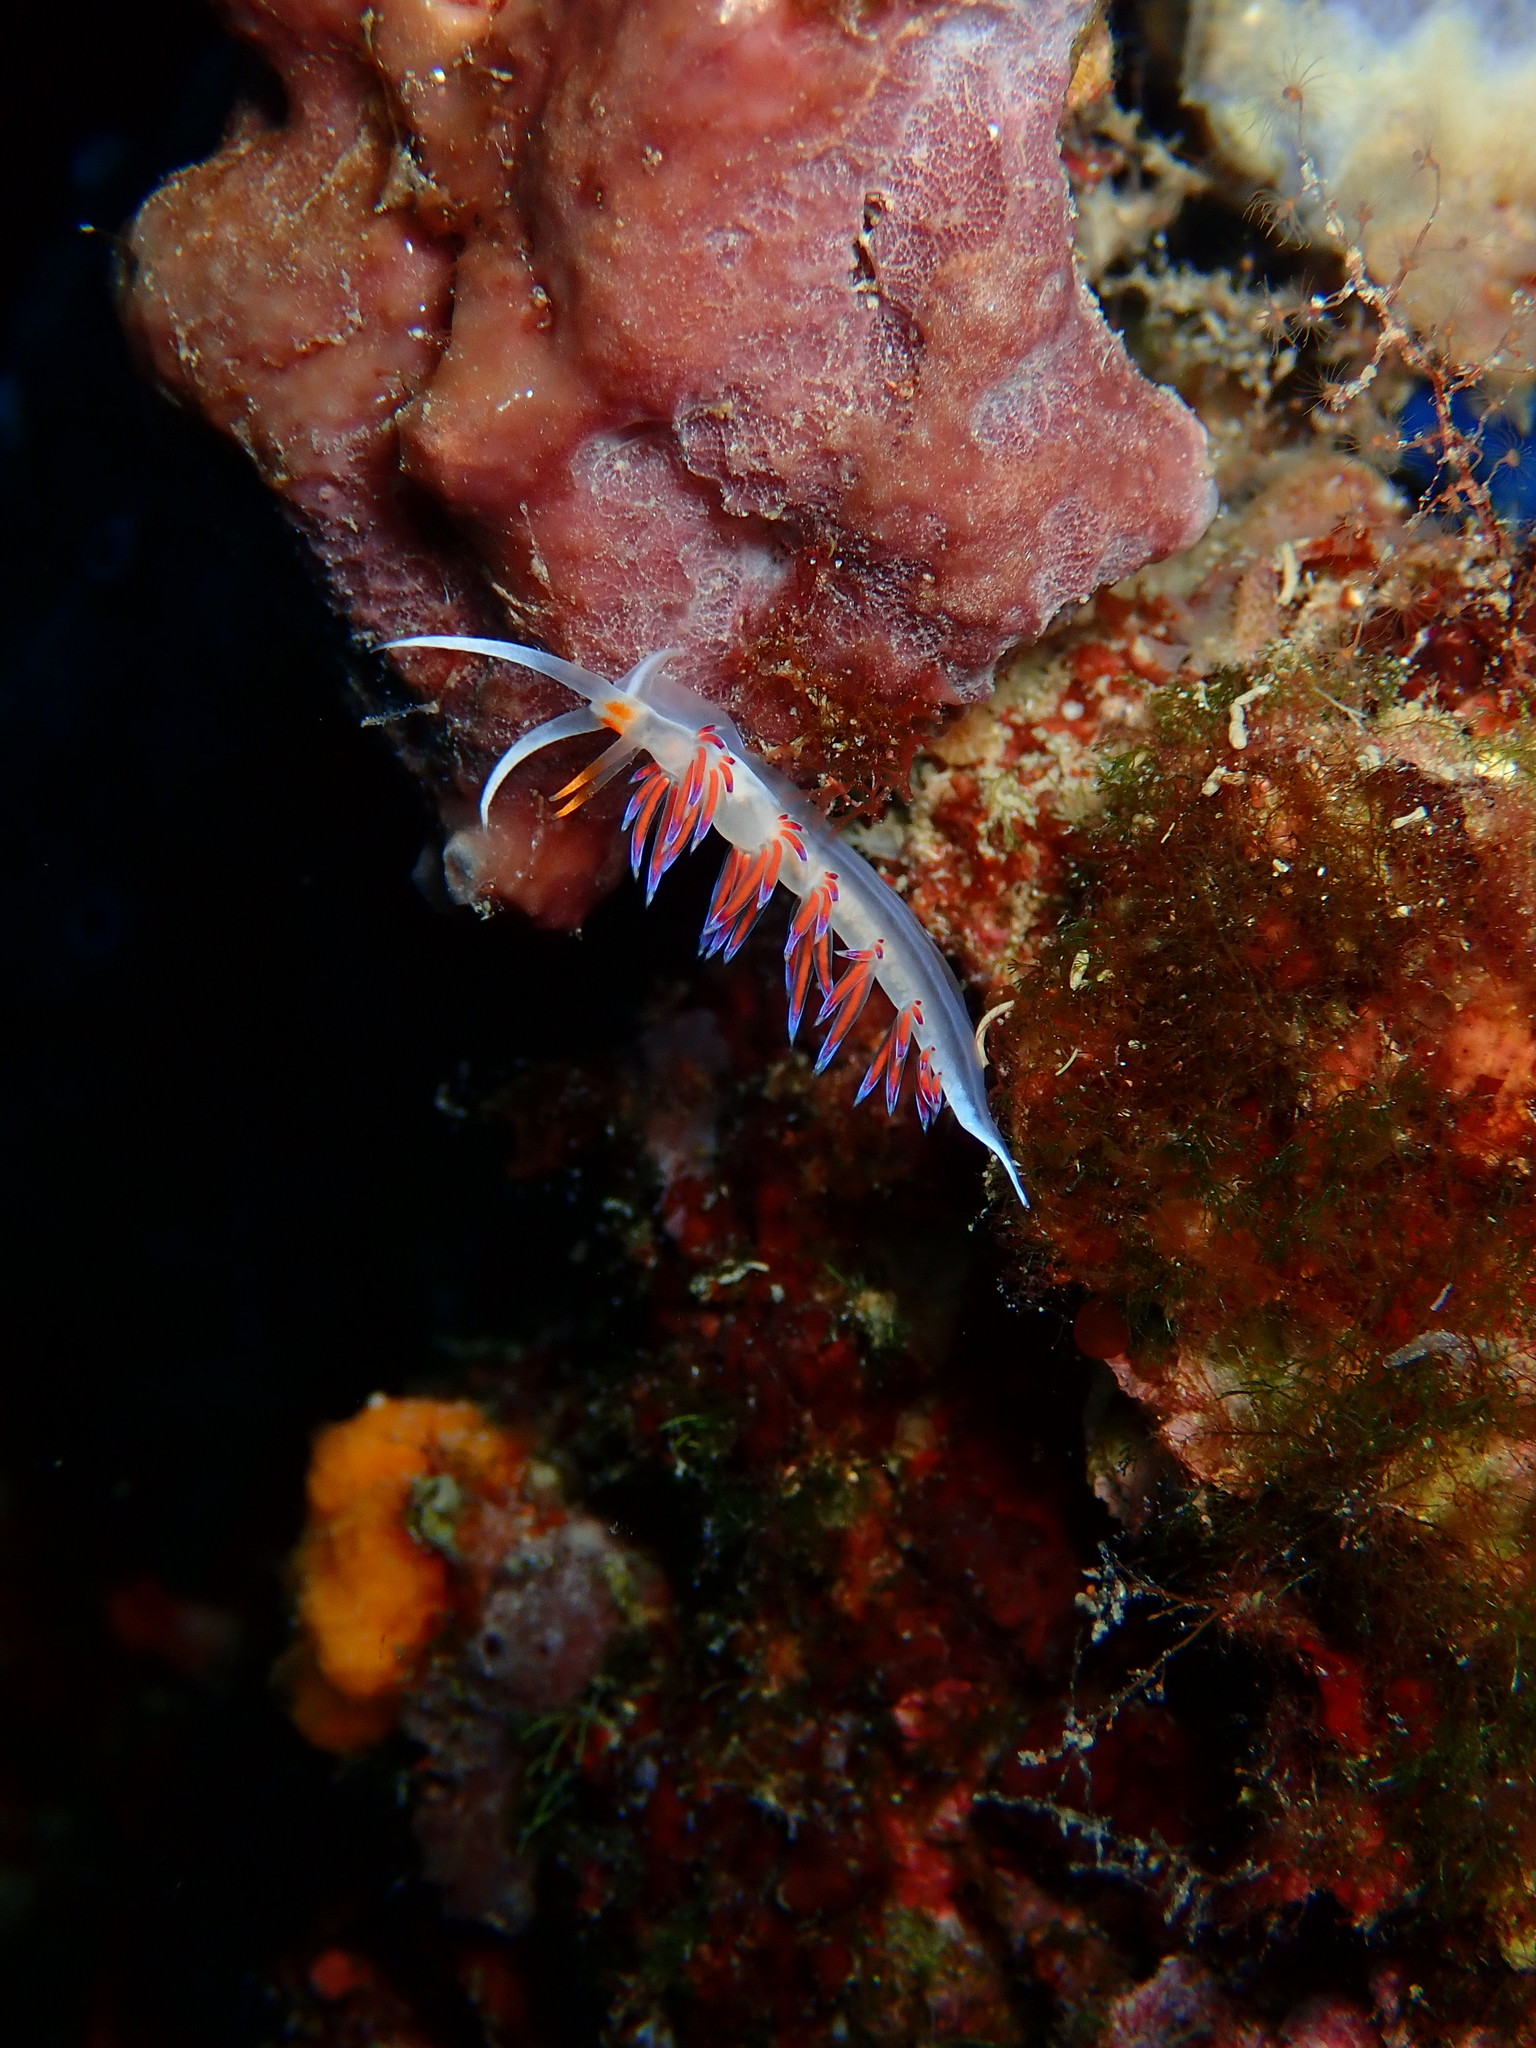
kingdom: Animalia
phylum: Mollusca
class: Gastropoda
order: Nudibranchia
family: Facelinidae
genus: Cratena
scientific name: Cratena peregrina
